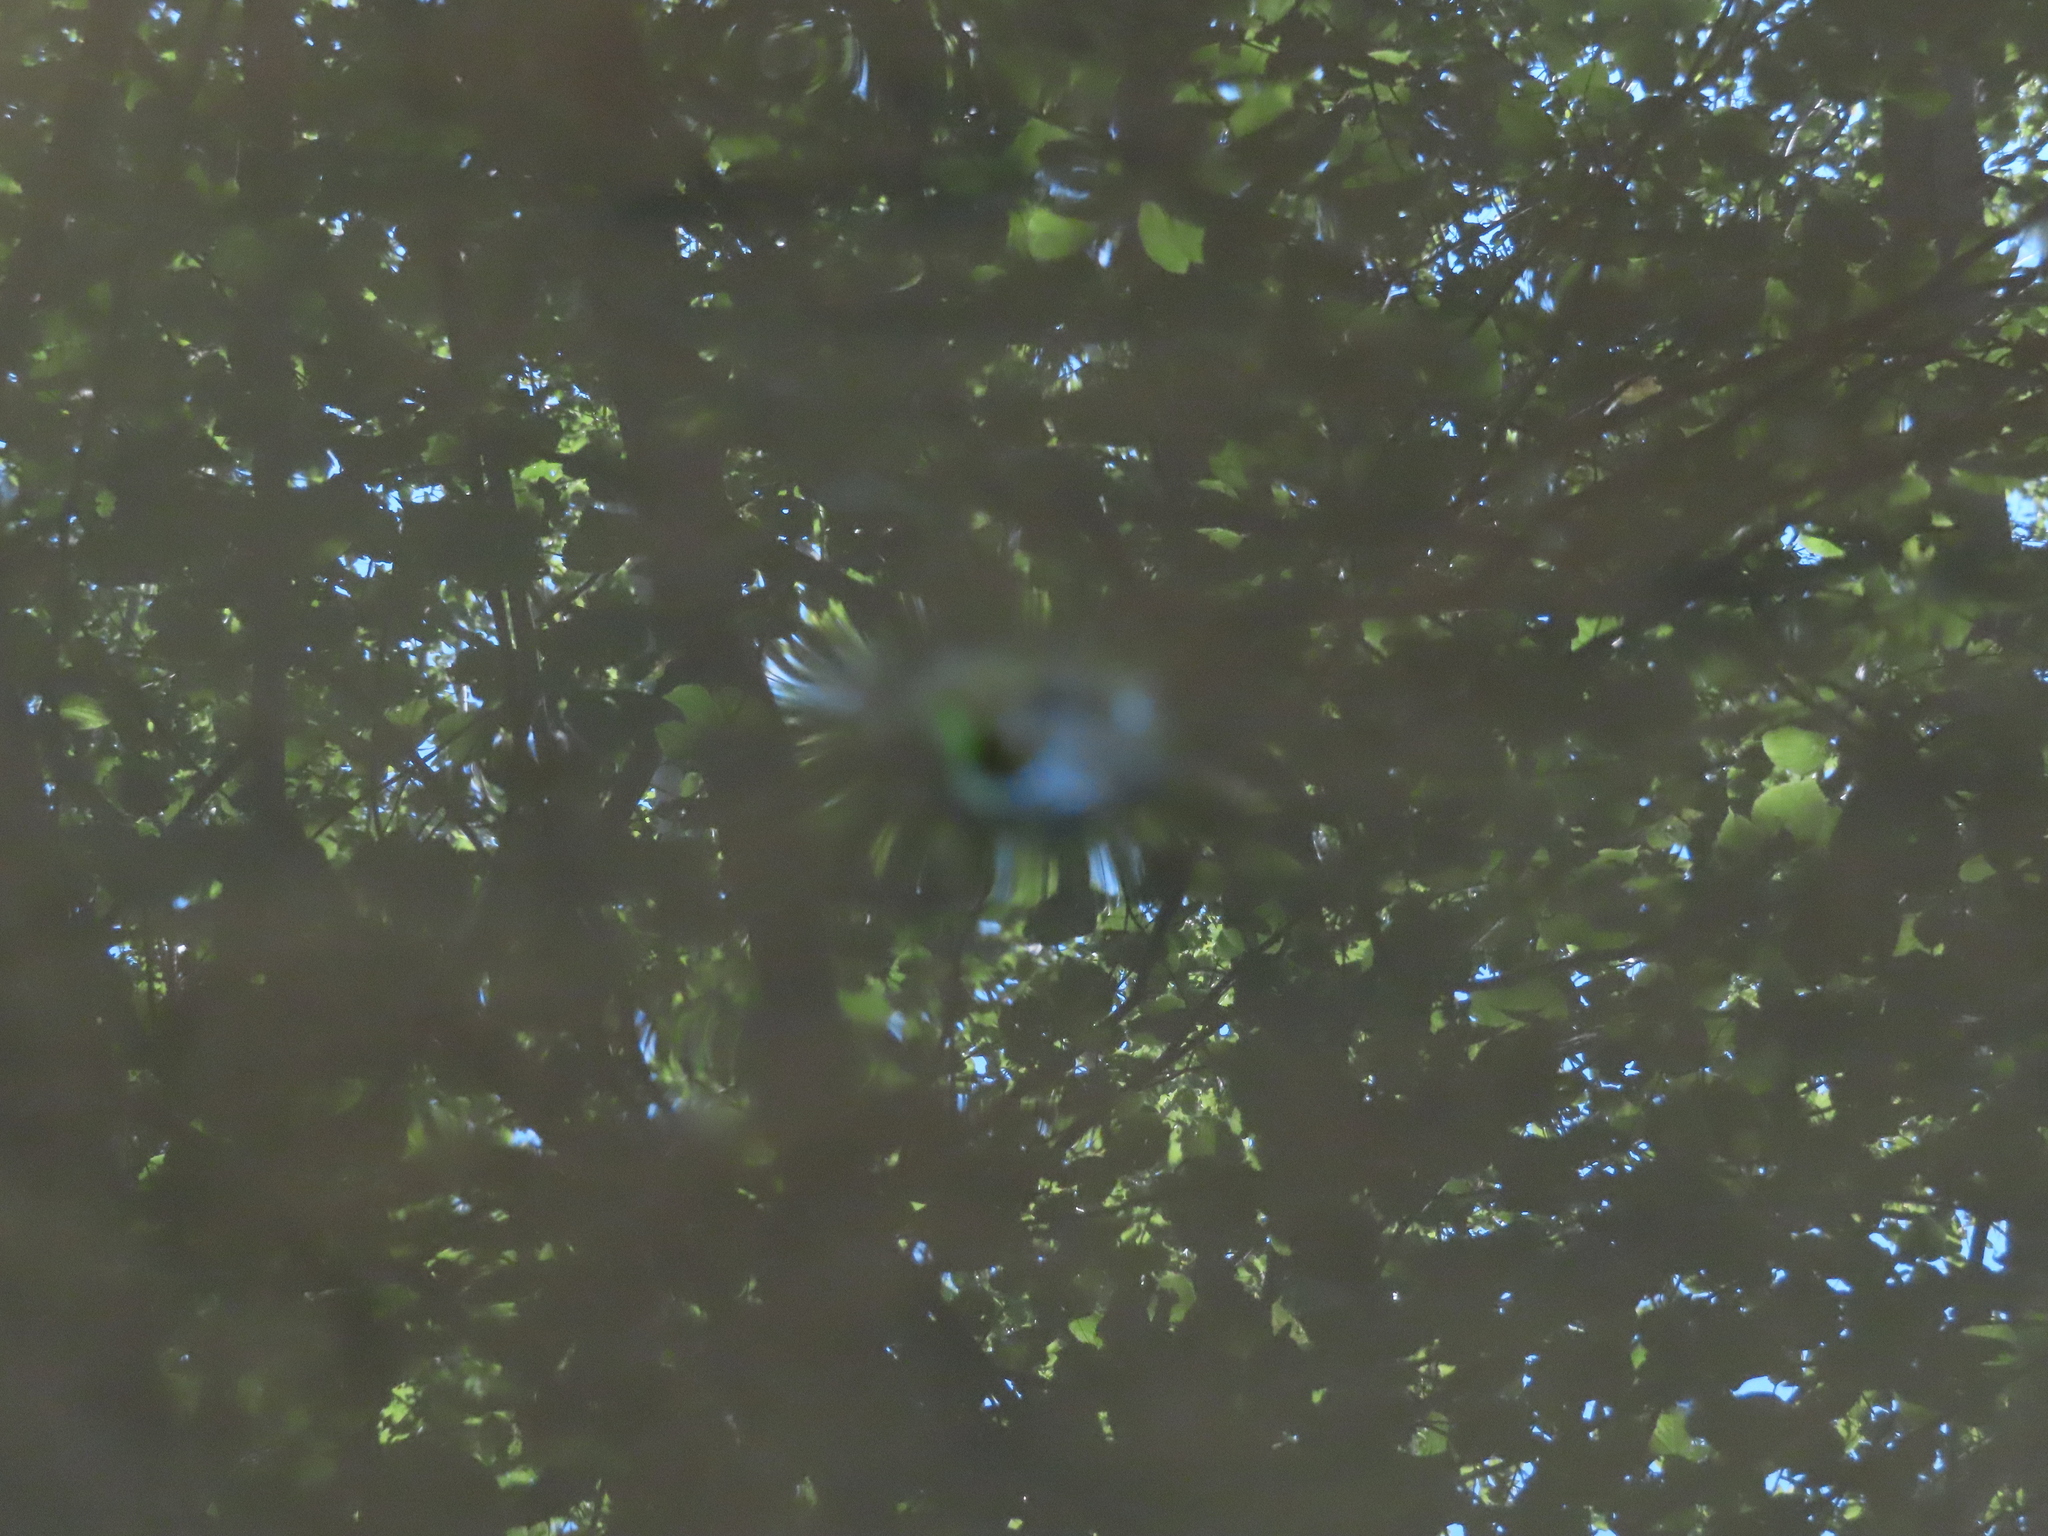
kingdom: Animalia
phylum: Chordata
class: Amphibia
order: Anura
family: Ranidae
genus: Lithobates
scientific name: Lithobates clamitans
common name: Green frog
